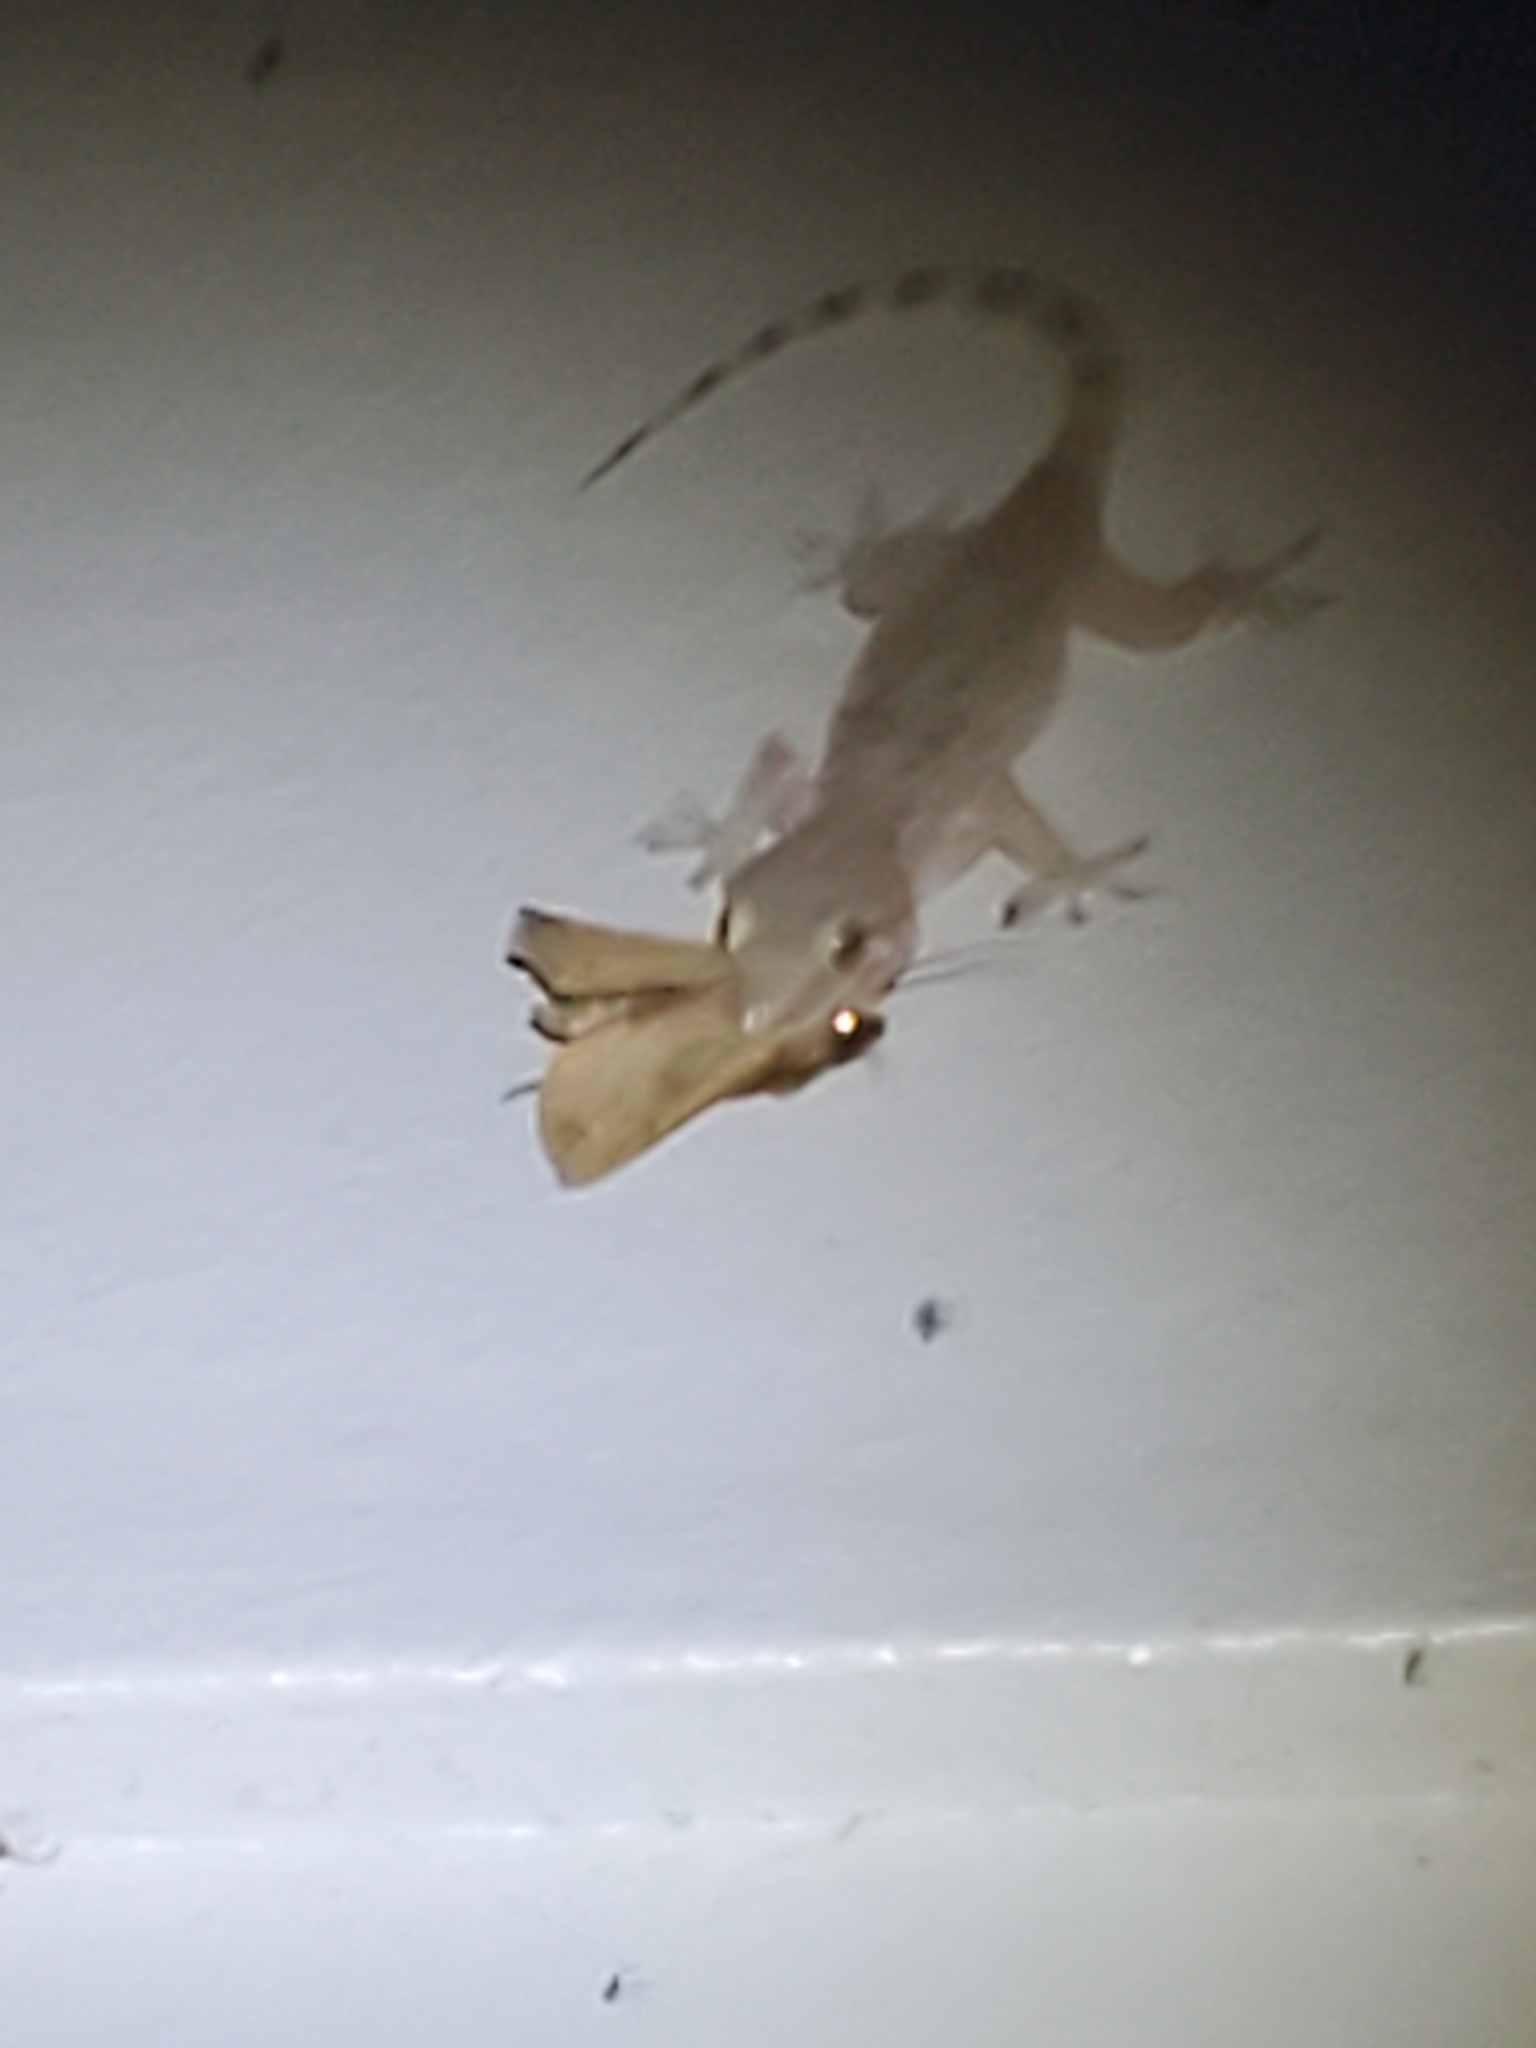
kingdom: Animalia
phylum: Chordata
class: Squamata
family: Gekkonidae
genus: Hemidactylus
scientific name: Hemidactylus turcicus
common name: Turkish gecko
